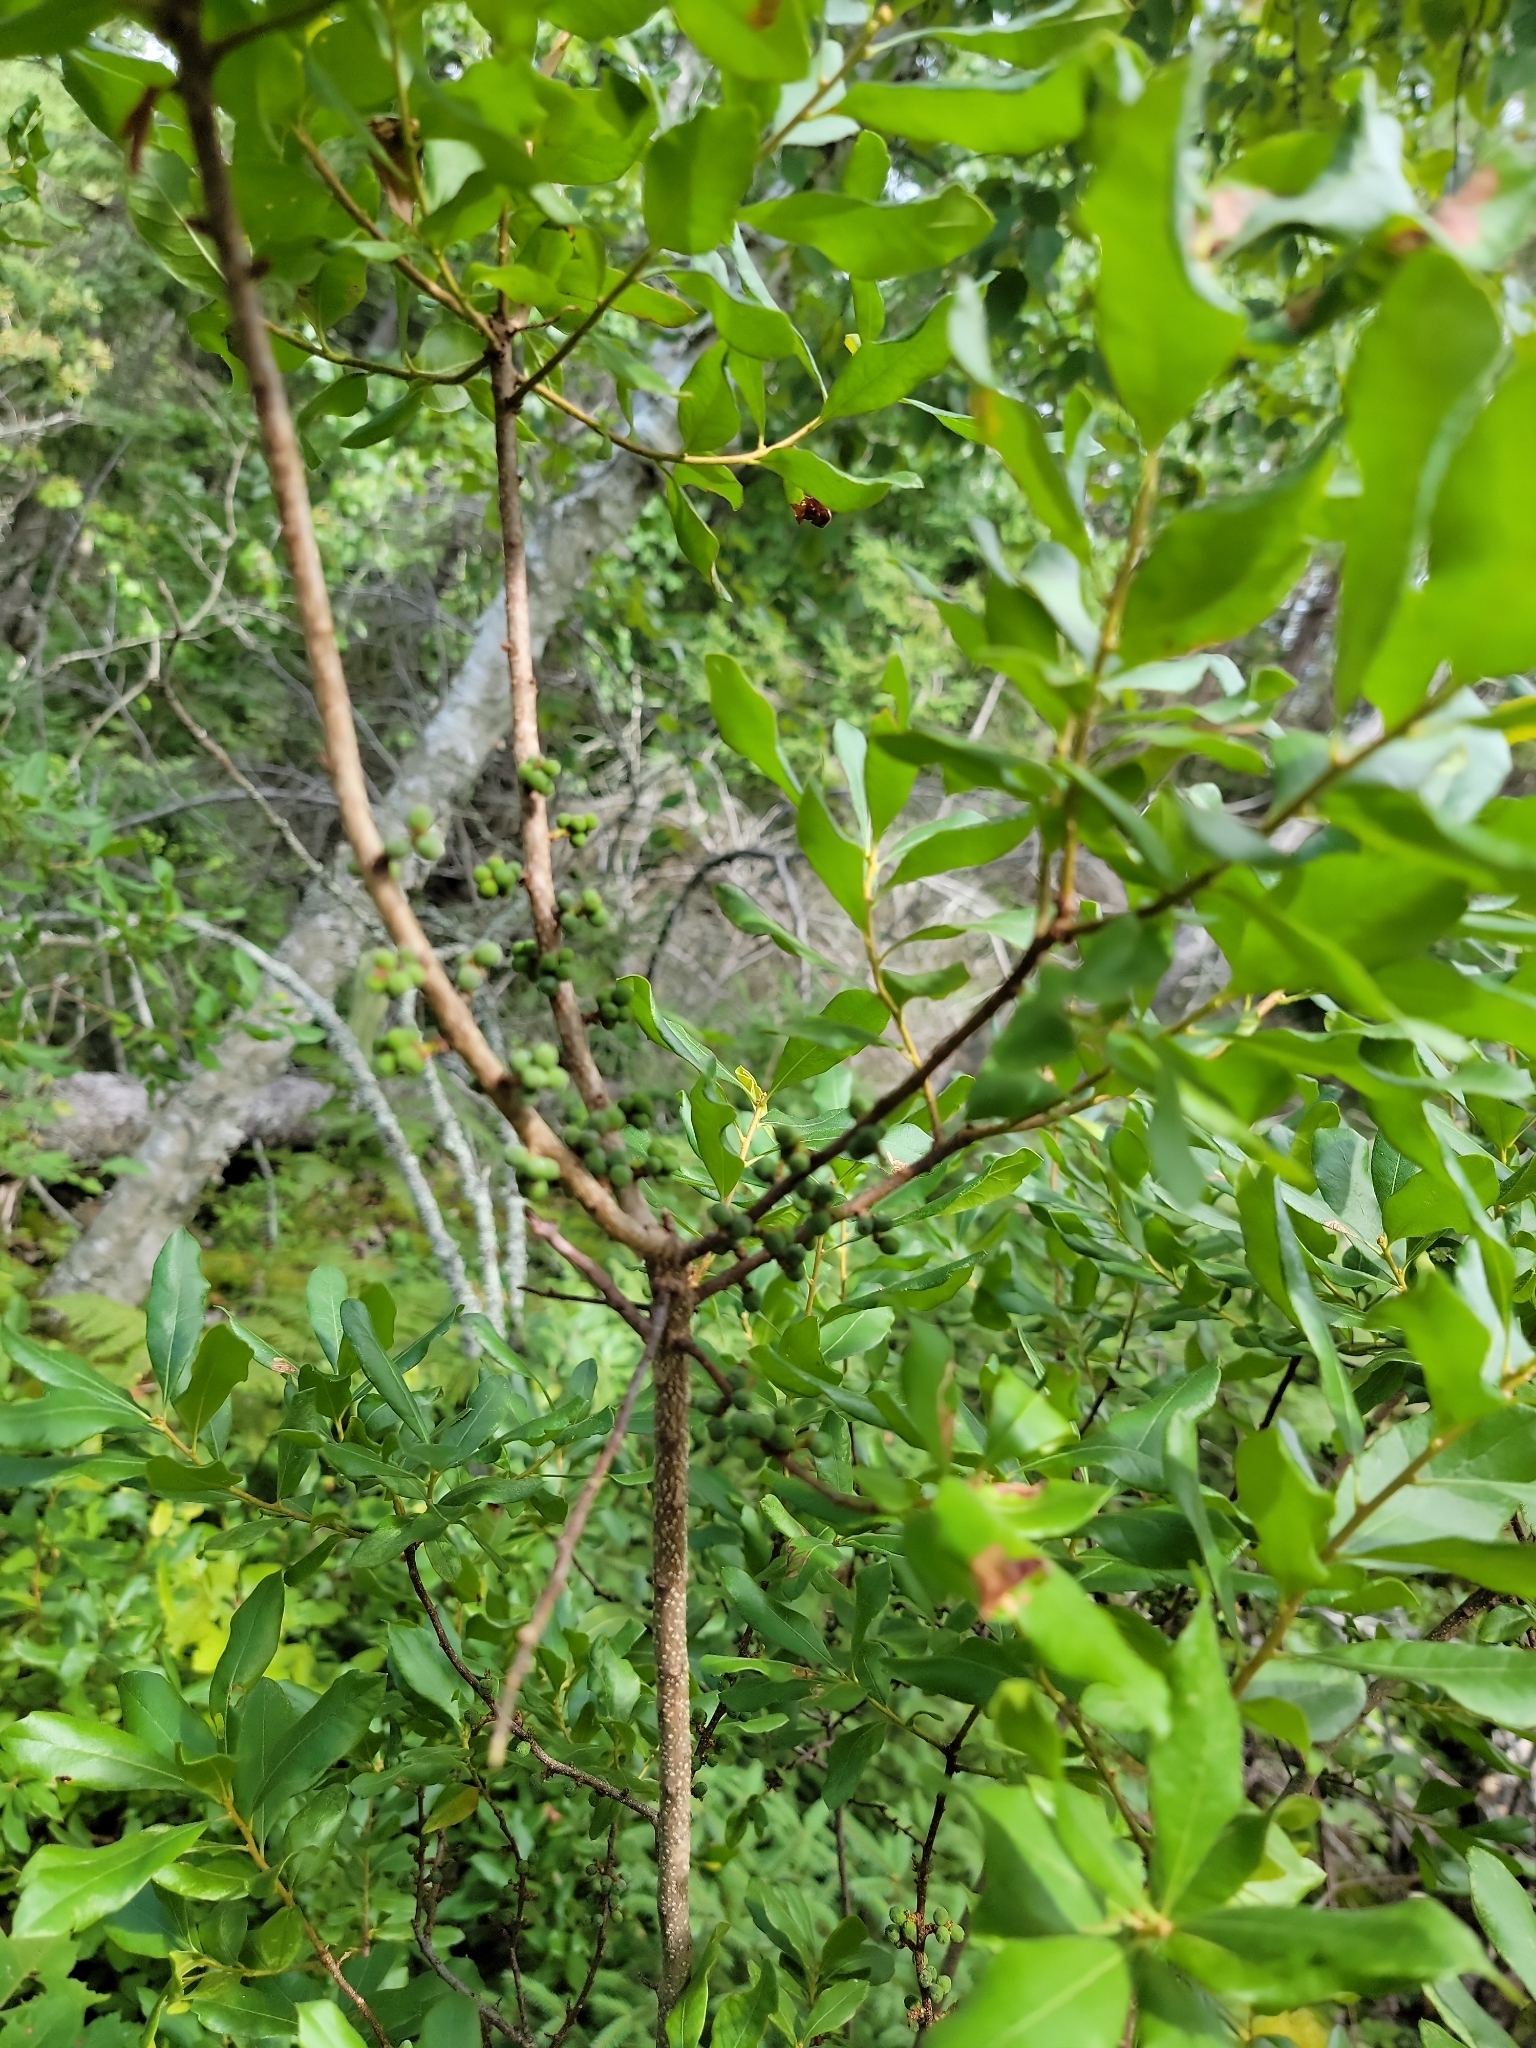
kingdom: Plantae
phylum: Tracheophyta
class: Magnoliopsida
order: Fagales
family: Myricaceae
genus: Morella
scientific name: Morella pensylvanica
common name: Northern bayberry
